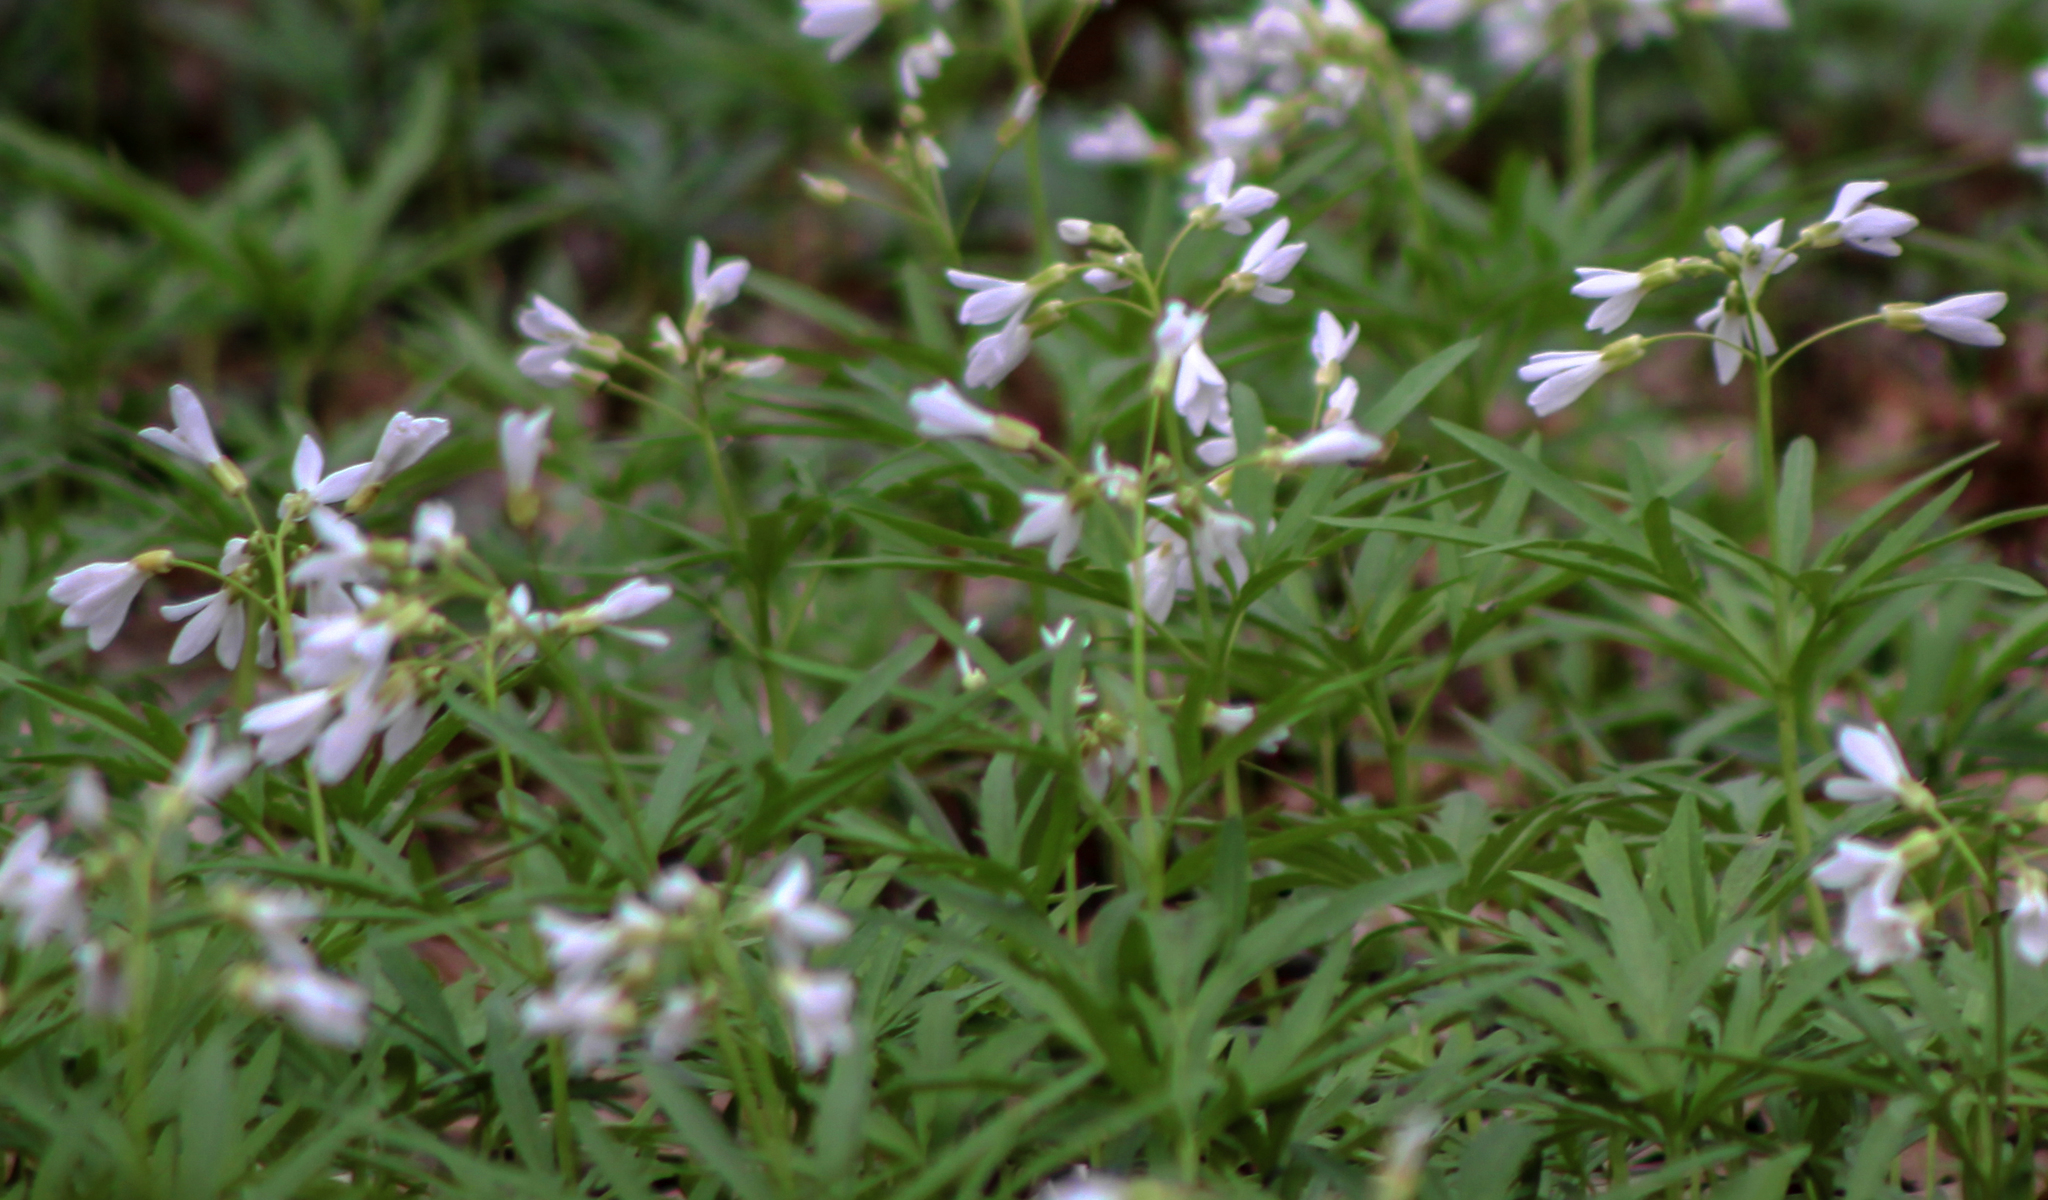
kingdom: Plantae
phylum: Tracheophyta
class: Magnoliopsida
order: Brassicales
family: Brassicaceae
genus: Cardamine
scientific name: Cardamine concatenata
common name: Cut-leaf toothcup
